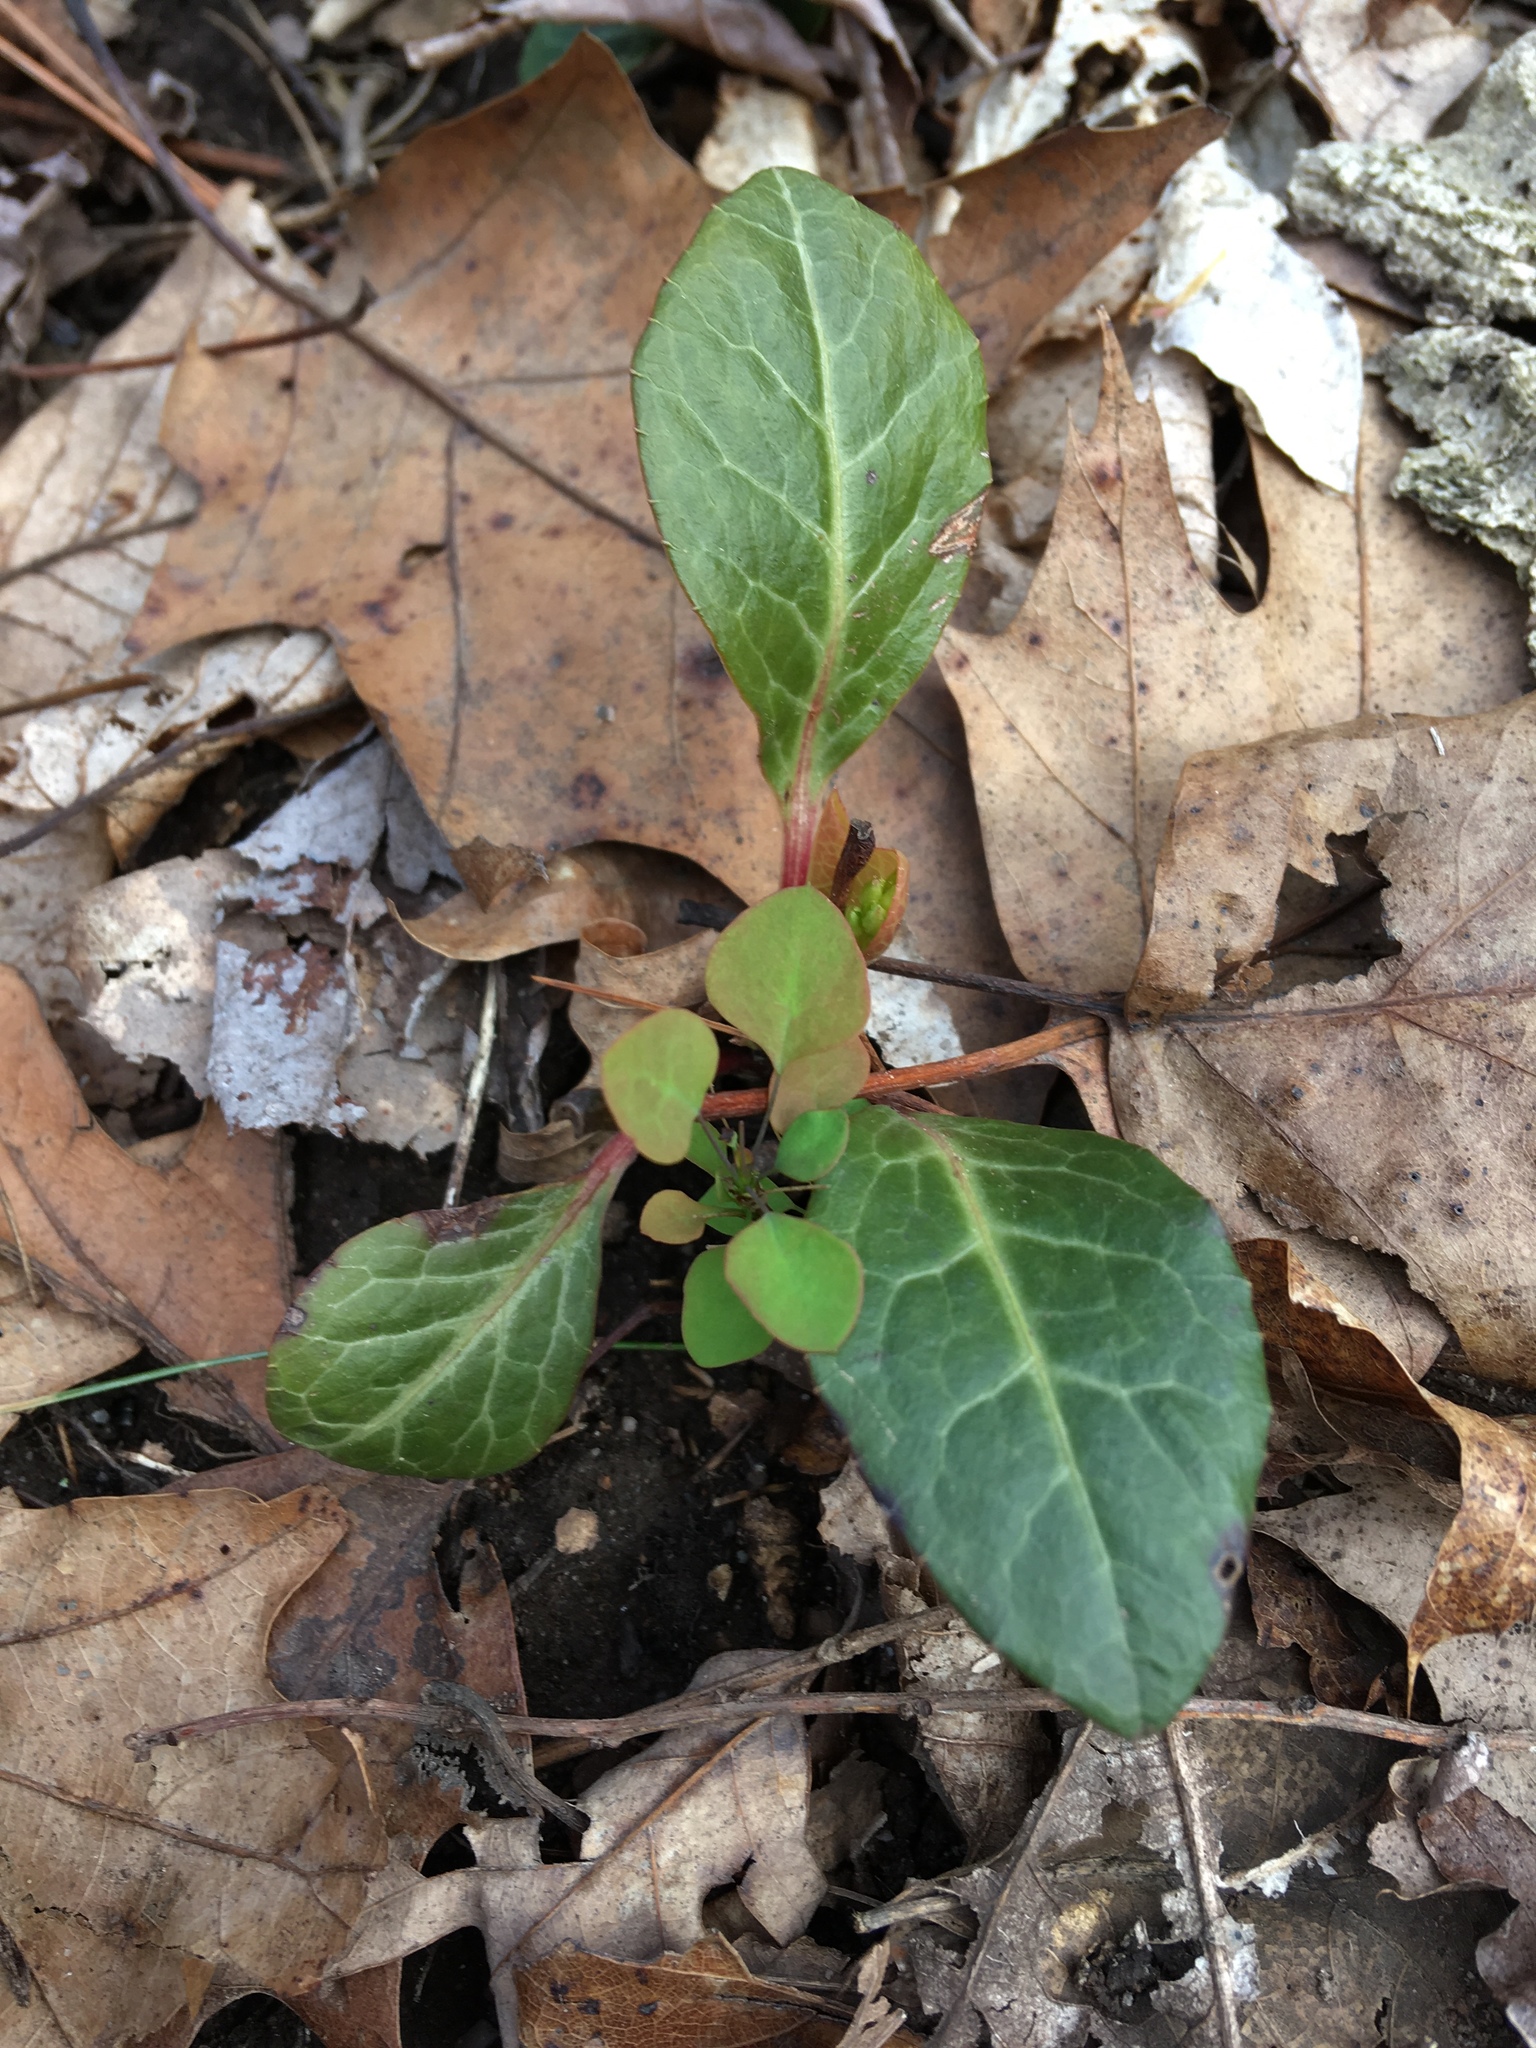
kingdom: Plantae
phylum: Tracheophyta
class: Magnoliopsida
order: Ericales
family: Ericaceae
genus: Pyrola
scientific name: Pyrola americana
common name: American wintergreen
